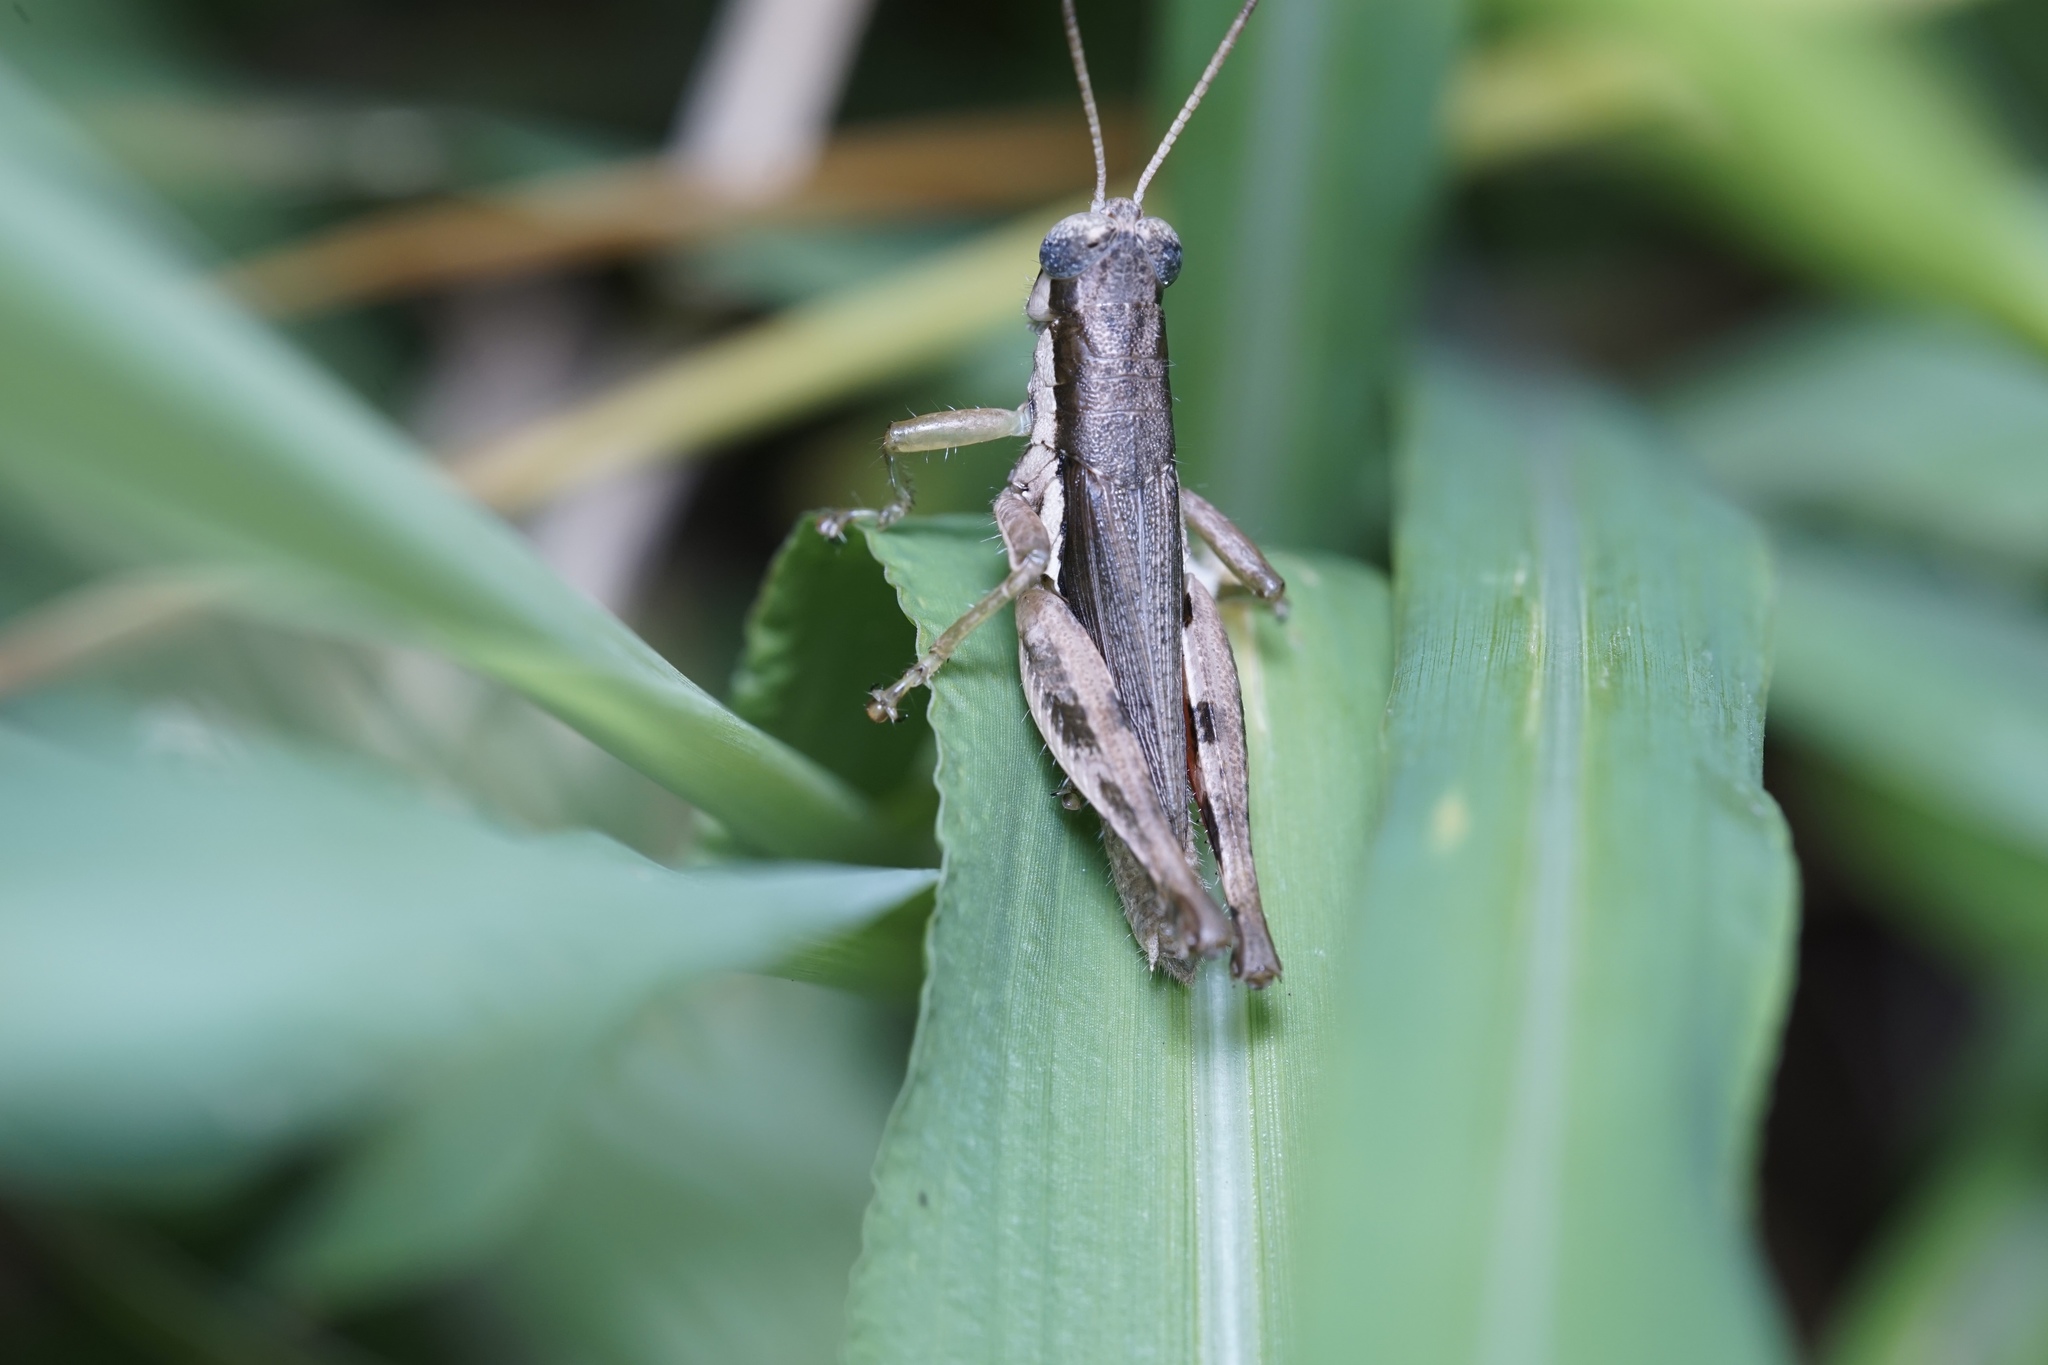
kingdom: Animalia
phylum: Arthropoda
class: Insecta
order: Orthoptera
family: Acrididae
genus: Pseudoxya
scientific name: Pseudoxya diminuta
